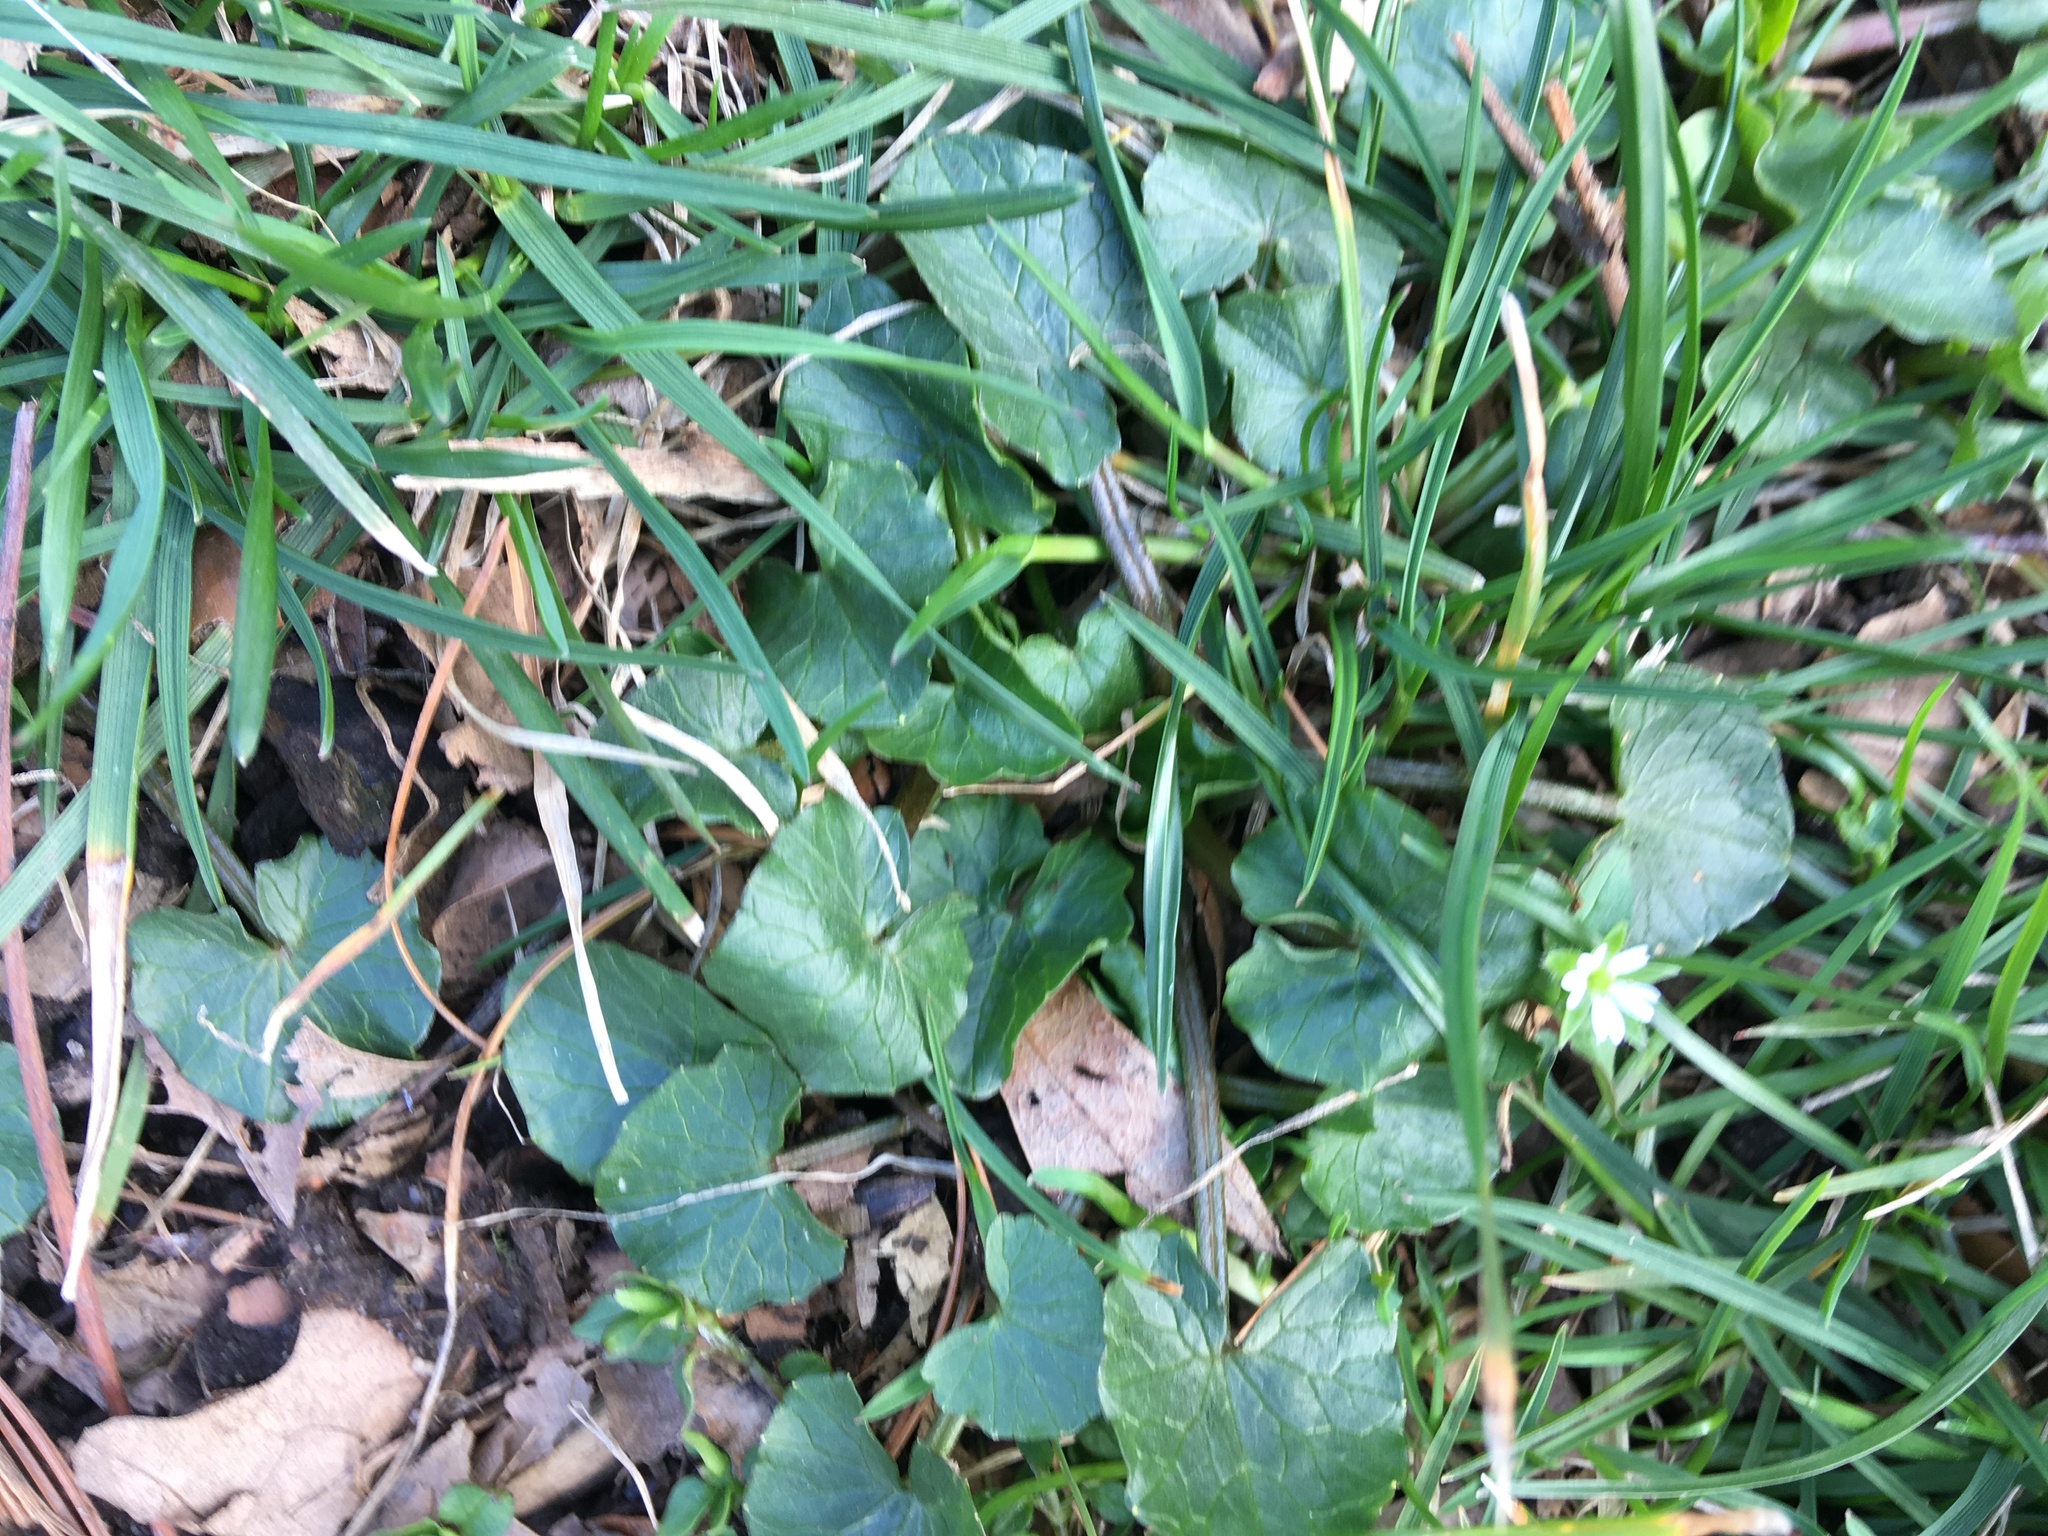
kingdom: Plantae
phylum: Tracheophyta
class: Magnoliopsida
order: Ranunculales
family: Ranunculaceae
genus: Ficaria
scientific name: Ficaria verna
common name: Lesser celandine
